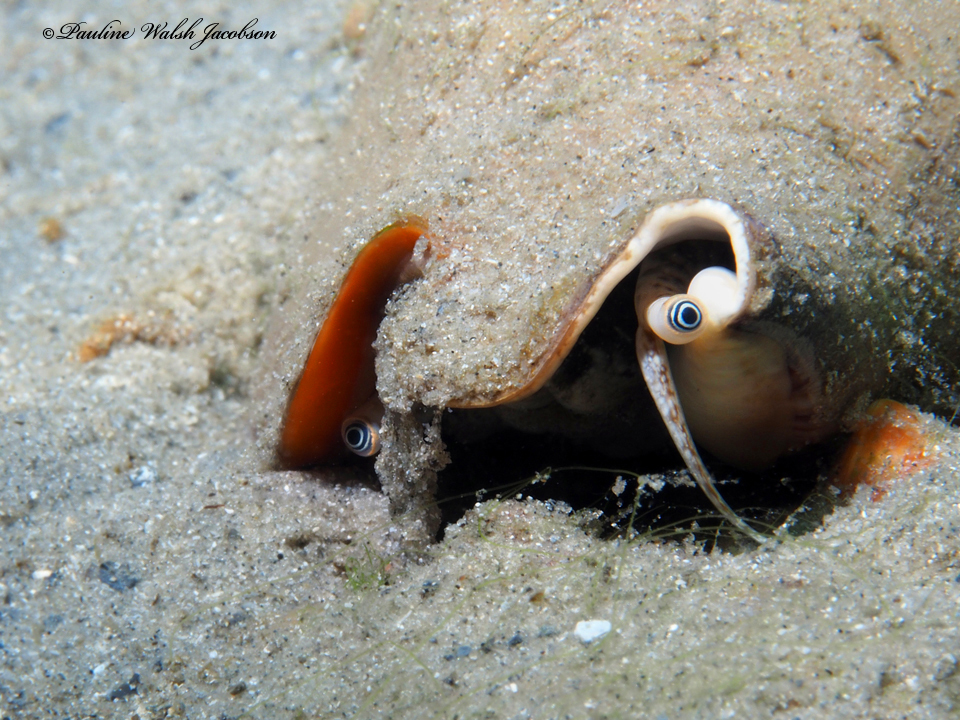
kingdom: Animalia
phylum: Mollusca
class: Gastropoda
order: Littorinimorpha
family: Strombidae
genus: Strombus
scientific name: Strombus alatus
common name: Florida fighting conch
